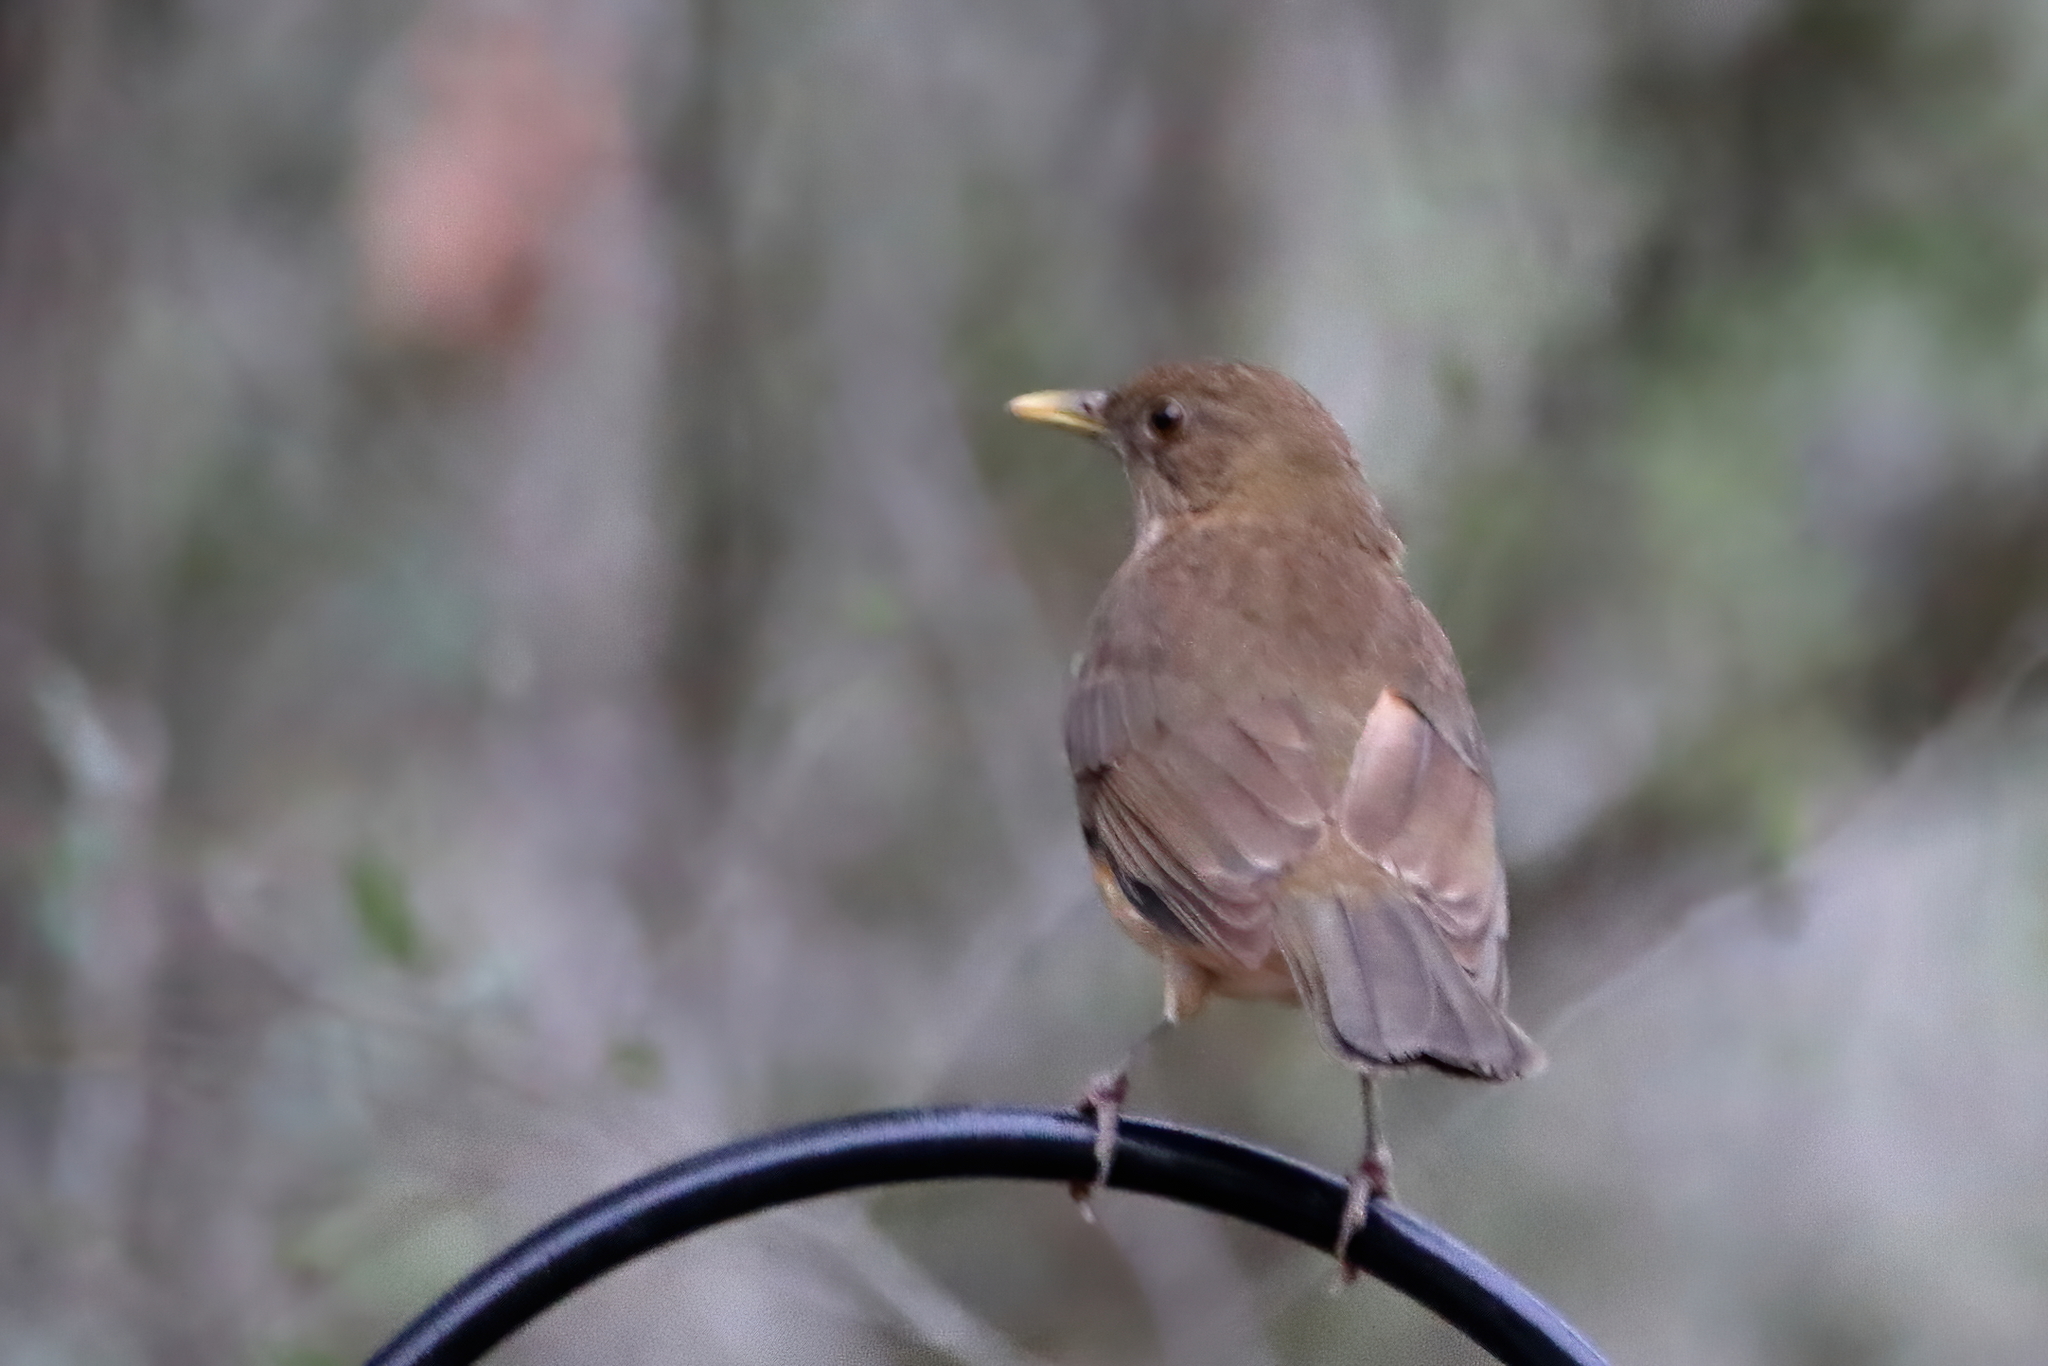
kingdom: Animalia
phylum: Chordata
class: Aves
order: Passeriformes
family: Turdidae
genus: Turdus
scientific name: Turdus grayi
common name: Clay-colored thrush
